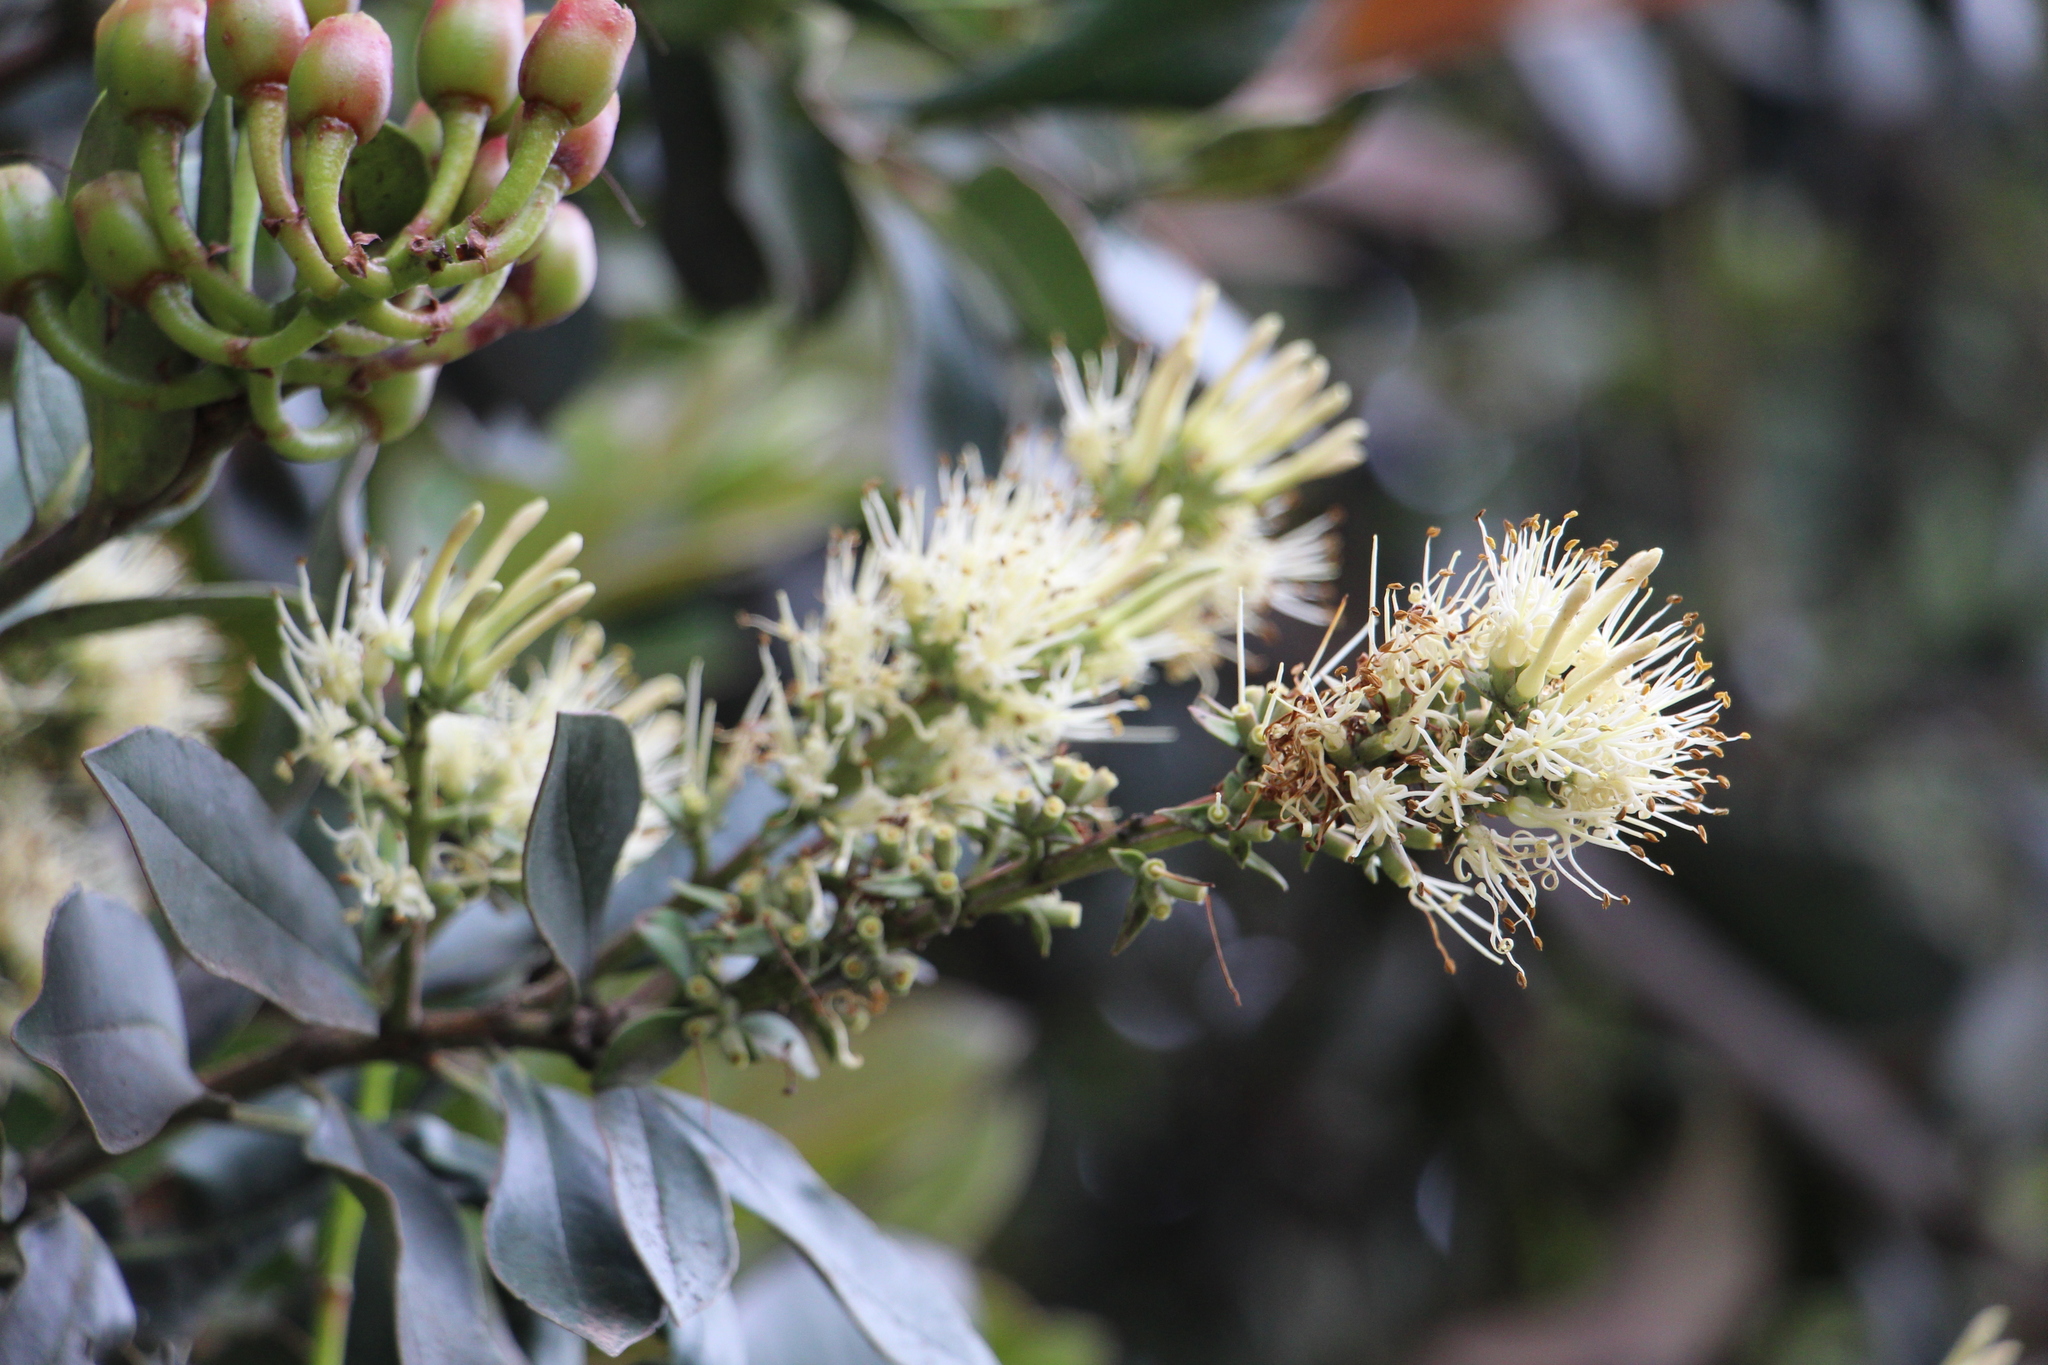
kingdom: Plantae
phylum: Tracheophyta
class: Magnoliopsida
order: Santalales
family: Loranthaceae
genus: Gaiadendron
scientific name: Gaiadendron punctatum
